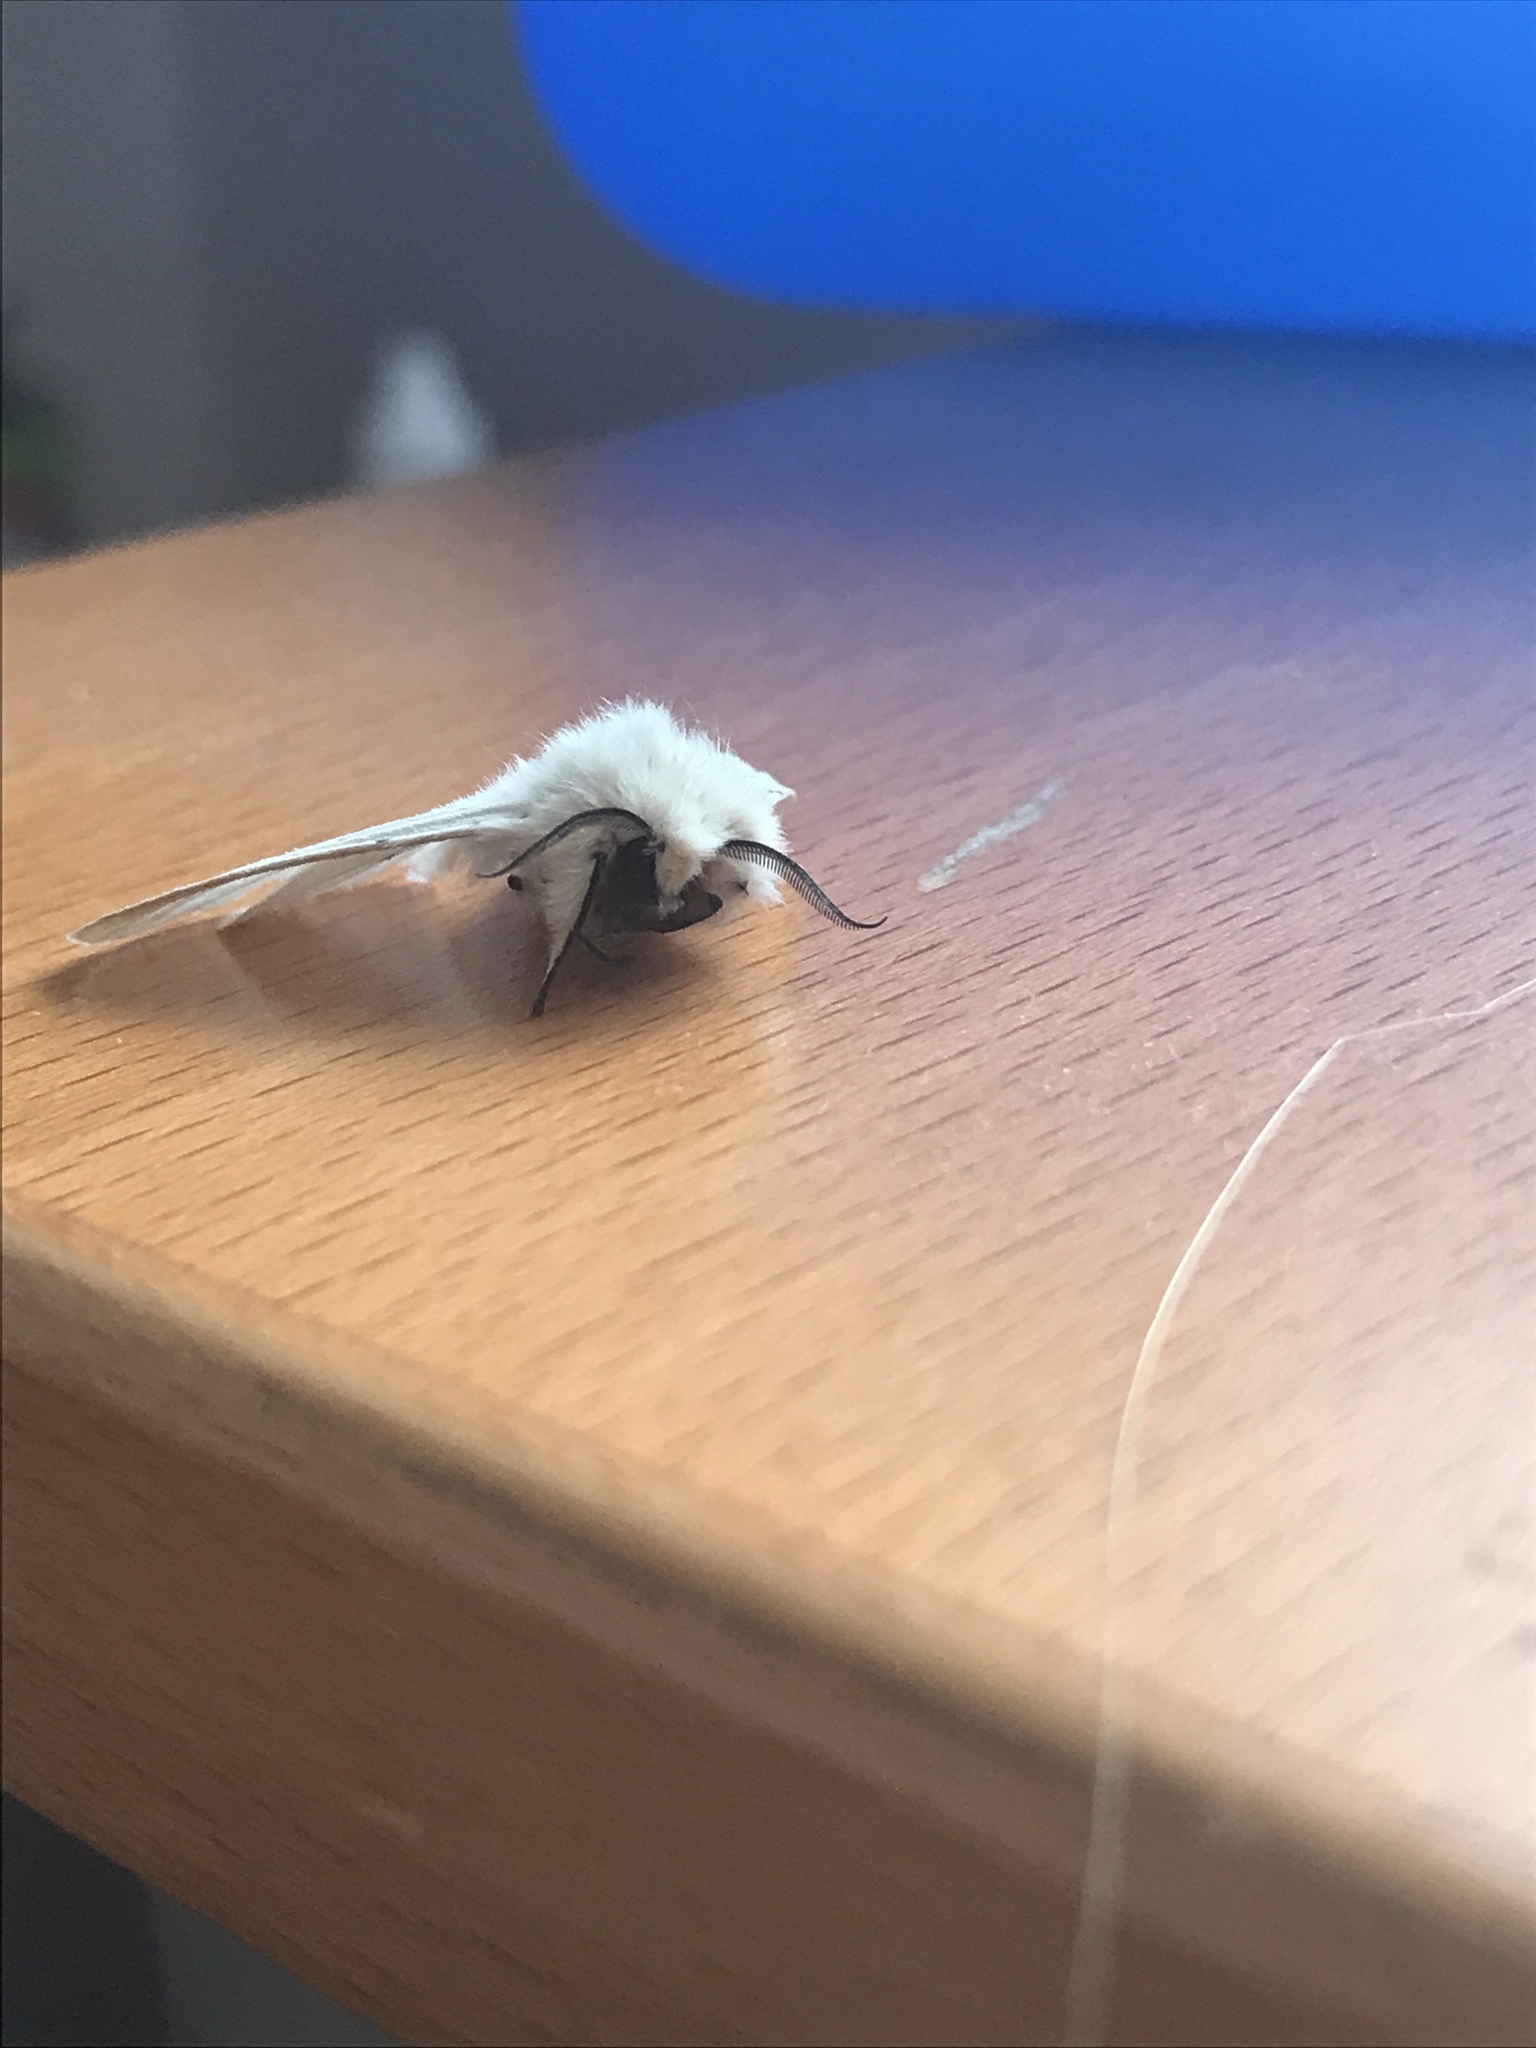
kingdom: Animalia
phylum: Arthropoda
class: Insecta
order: Lepidoptera
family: Erebidae
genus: Spilosoma
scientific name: Spilosoma lubricipeda
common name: White ermine
